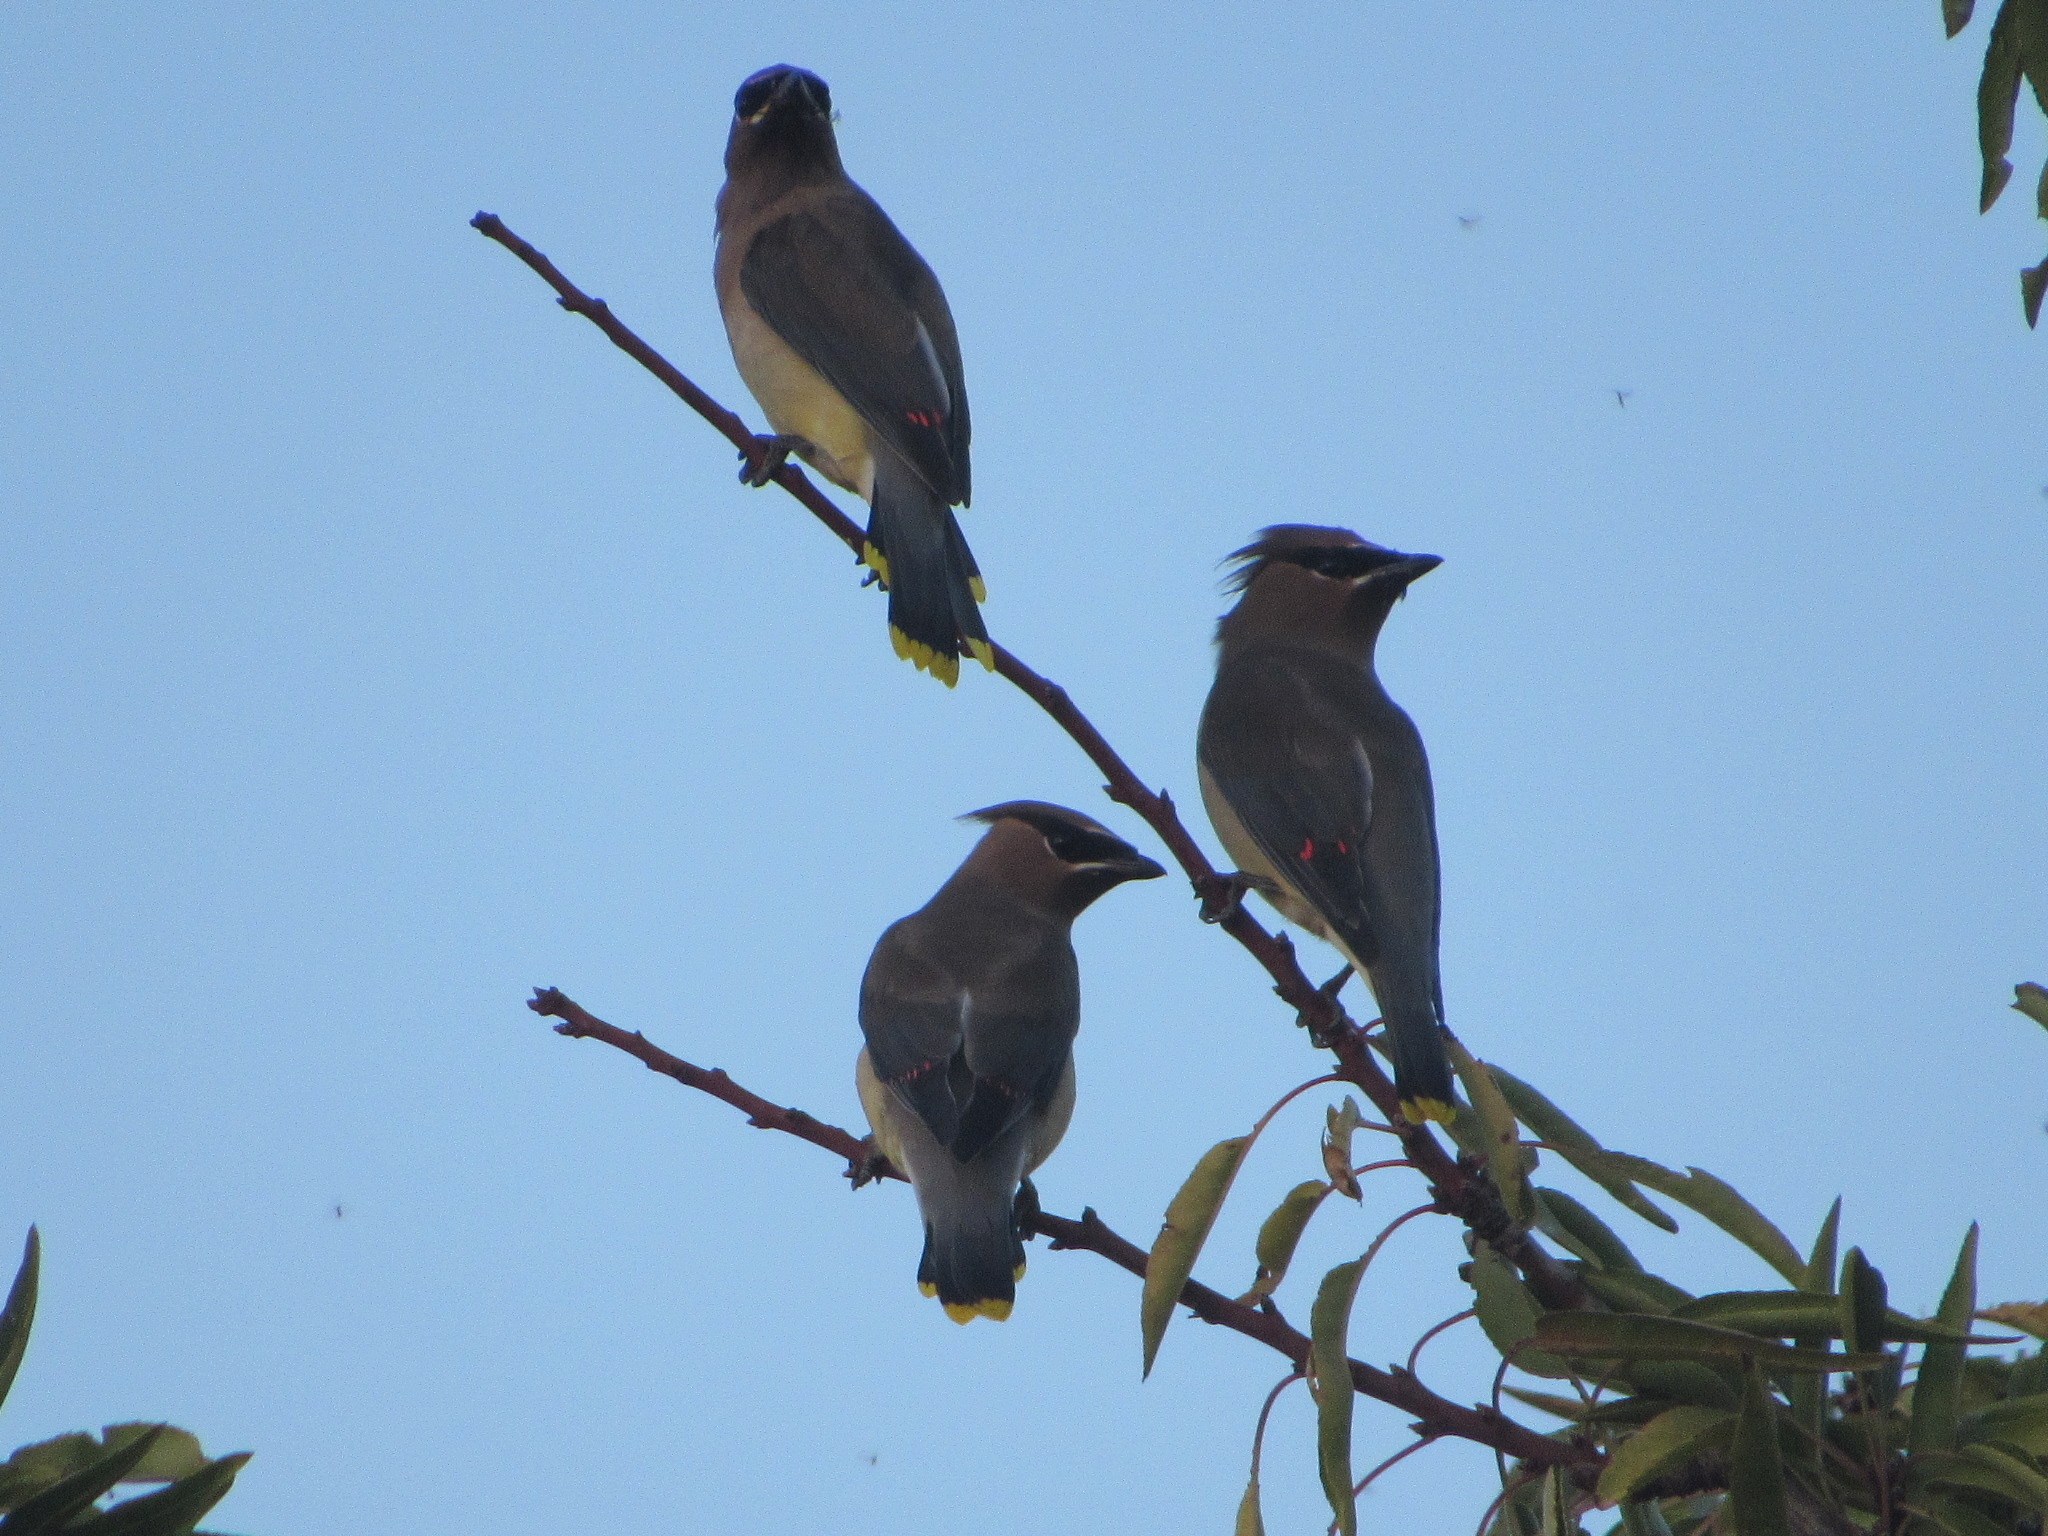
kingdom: Animalia
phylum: Chordata
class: Aves
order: Passeriformes
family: Bombycillidae
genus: Bombycilla
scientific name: Bombycilla cedrorum
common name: Cedar waxwing
